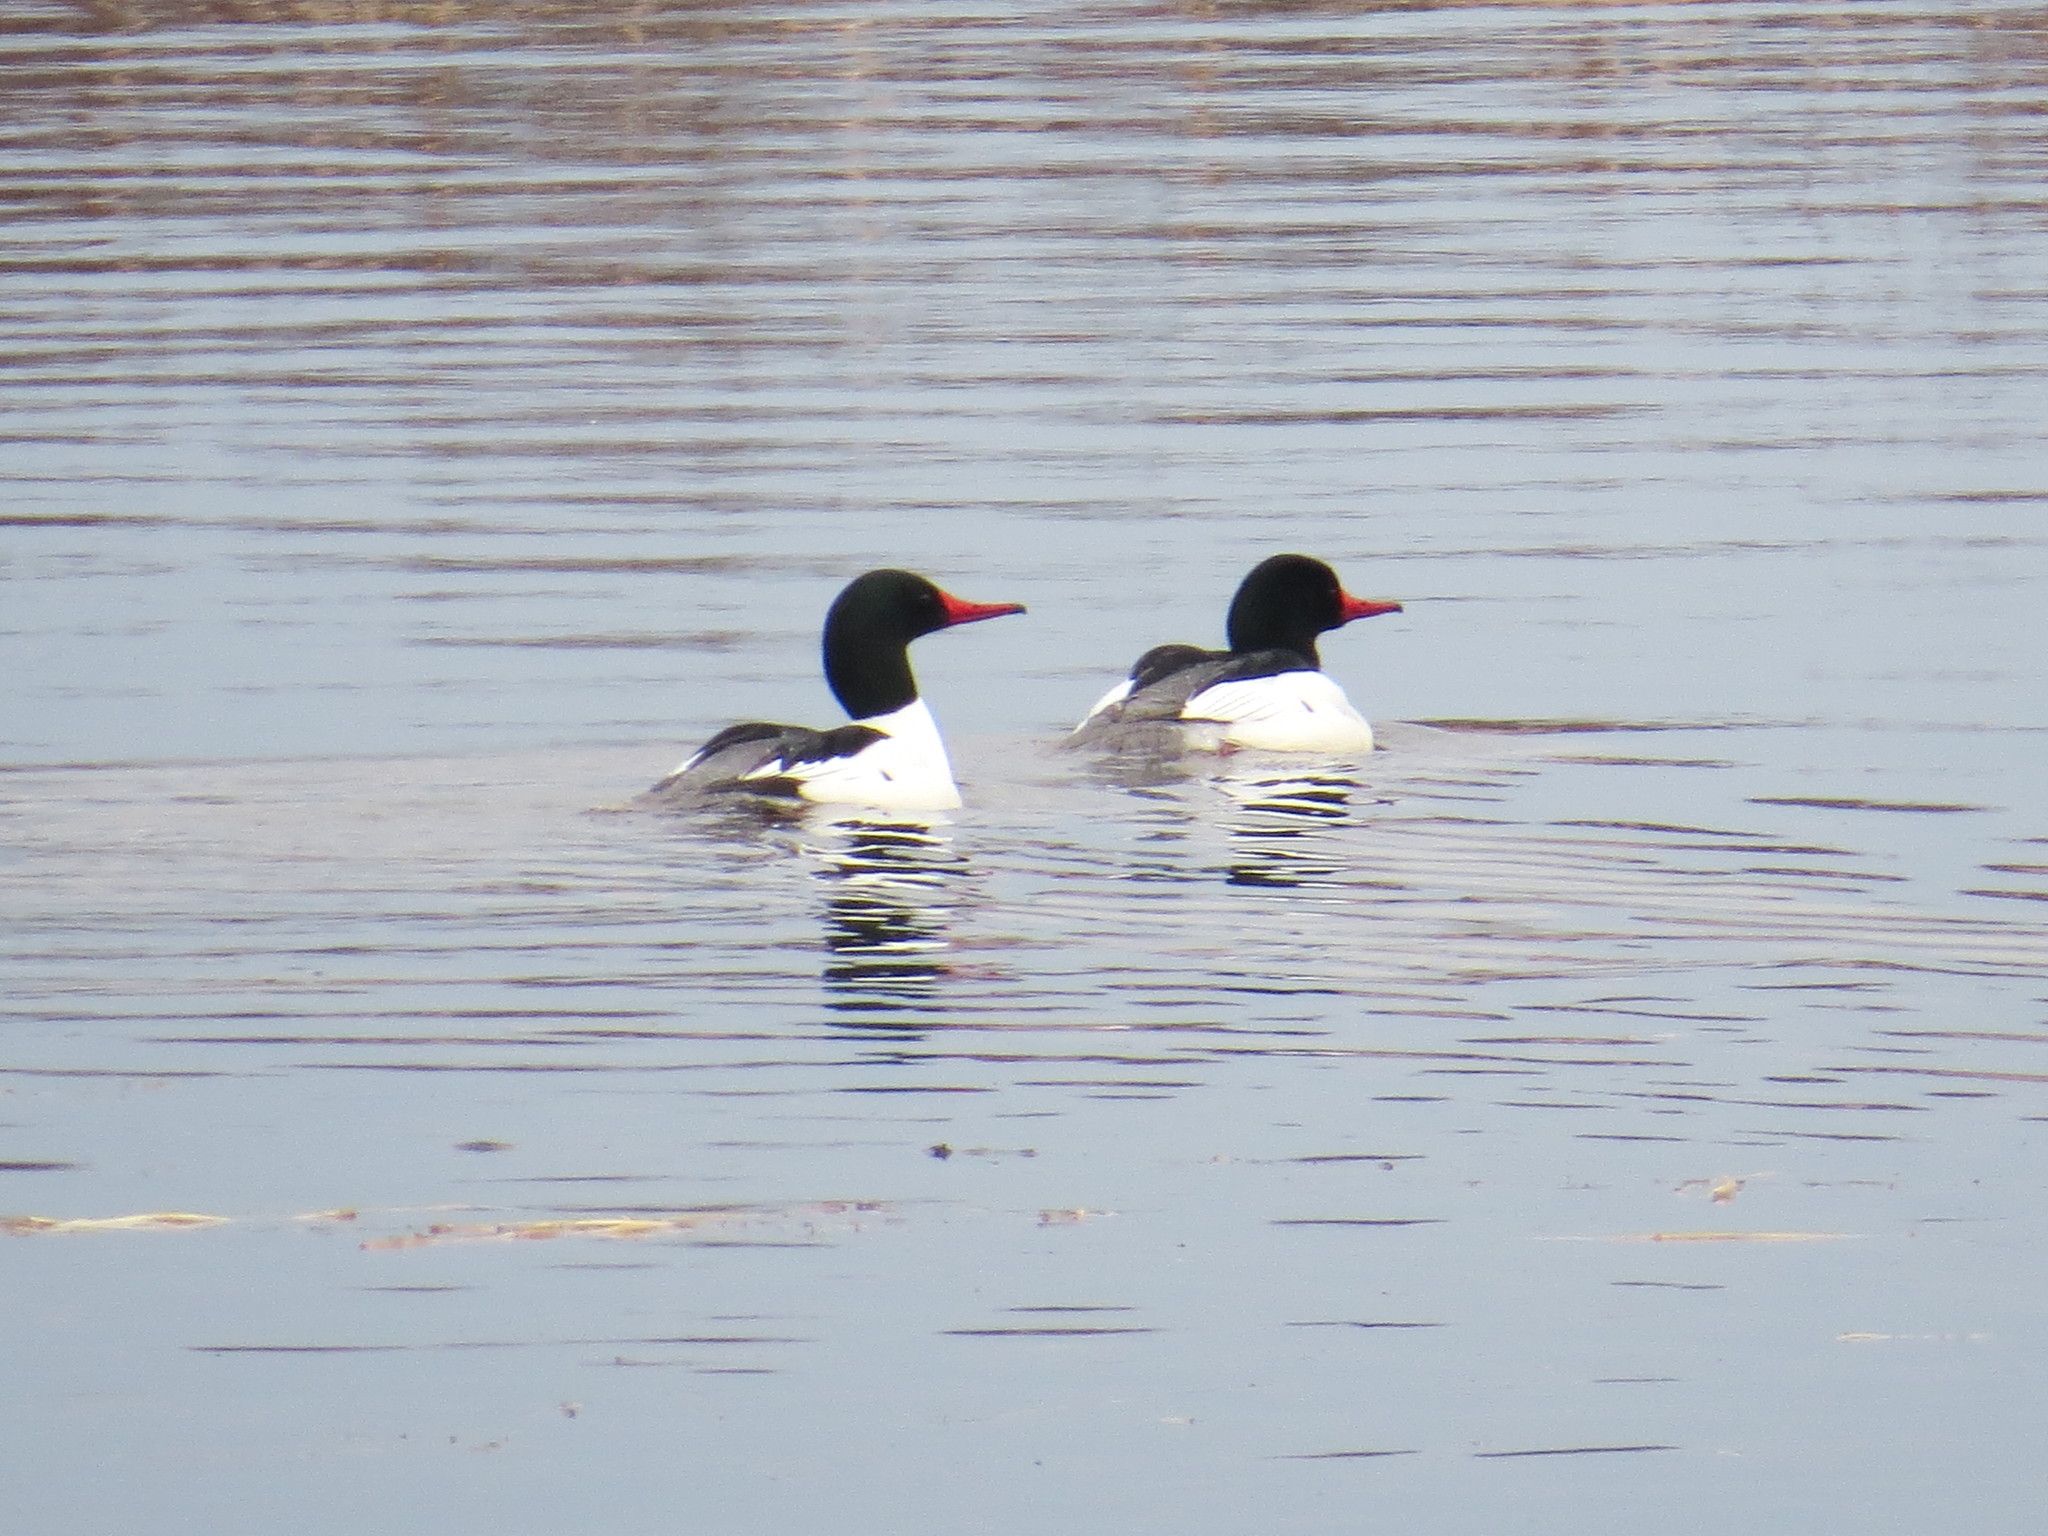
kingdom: Animalia
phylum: Chordata
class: Aves
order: Anseriformes
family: Anatidae
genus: Mergus
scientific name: Mergus merganser
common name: Common merganser
